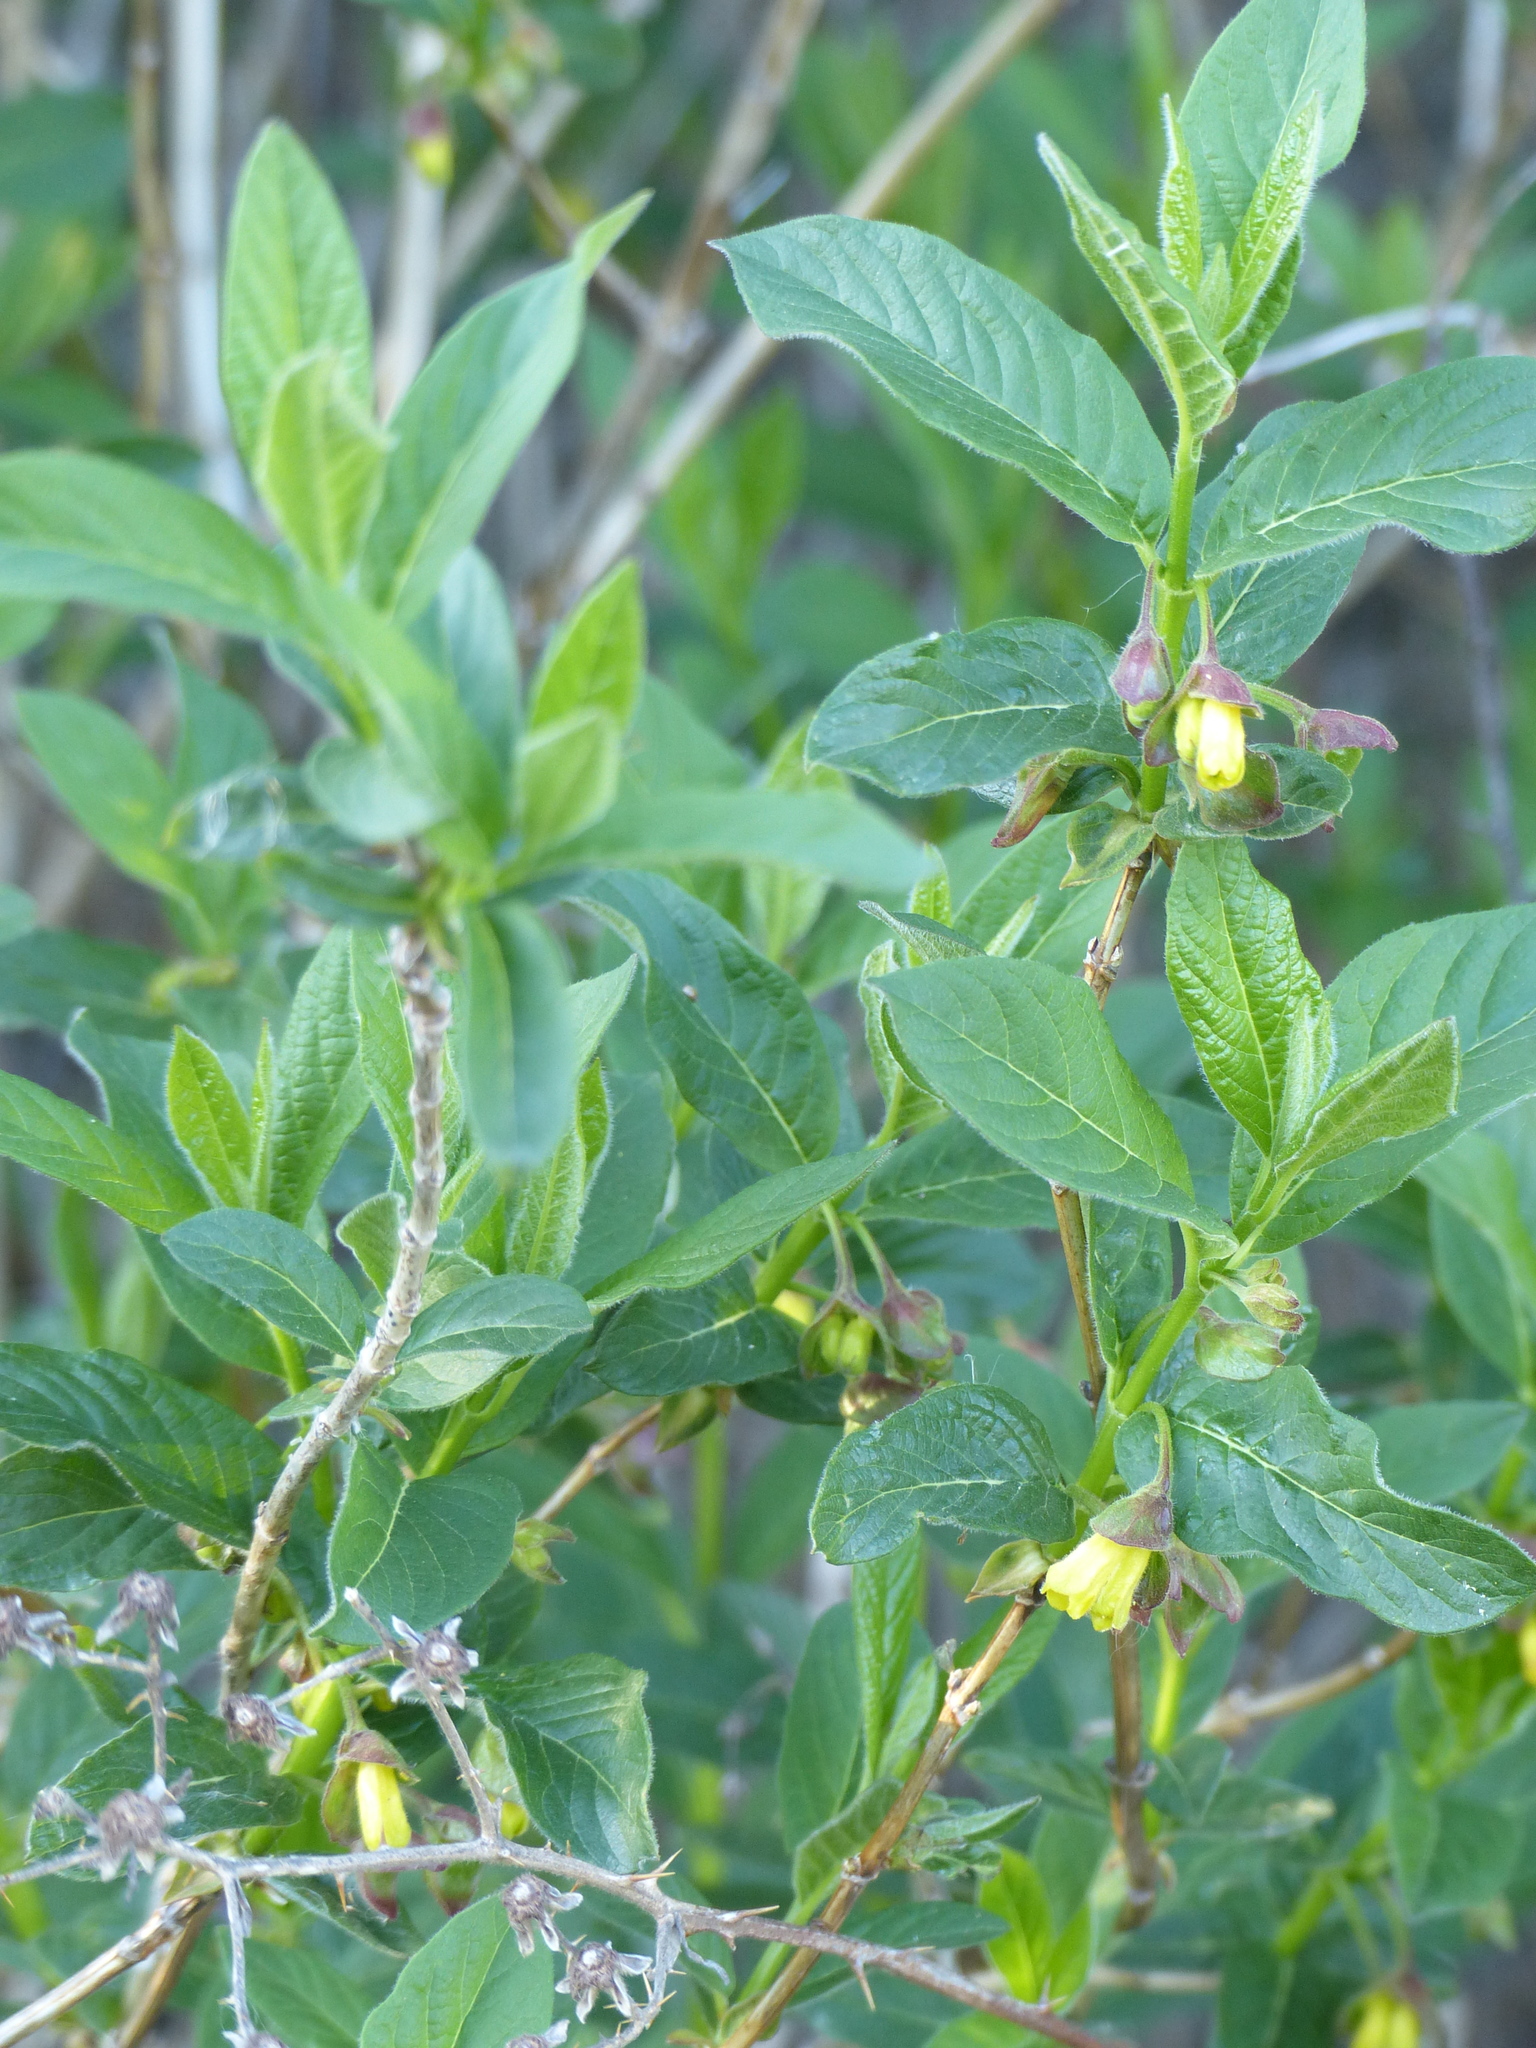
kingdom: Plantae
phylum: Tracheophyta
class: Magnoliopsida
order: Dipsacales
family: Caprifoliaceae
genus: Lonicera
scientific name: Lonicera involucrata
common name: Californian honeysuckle
